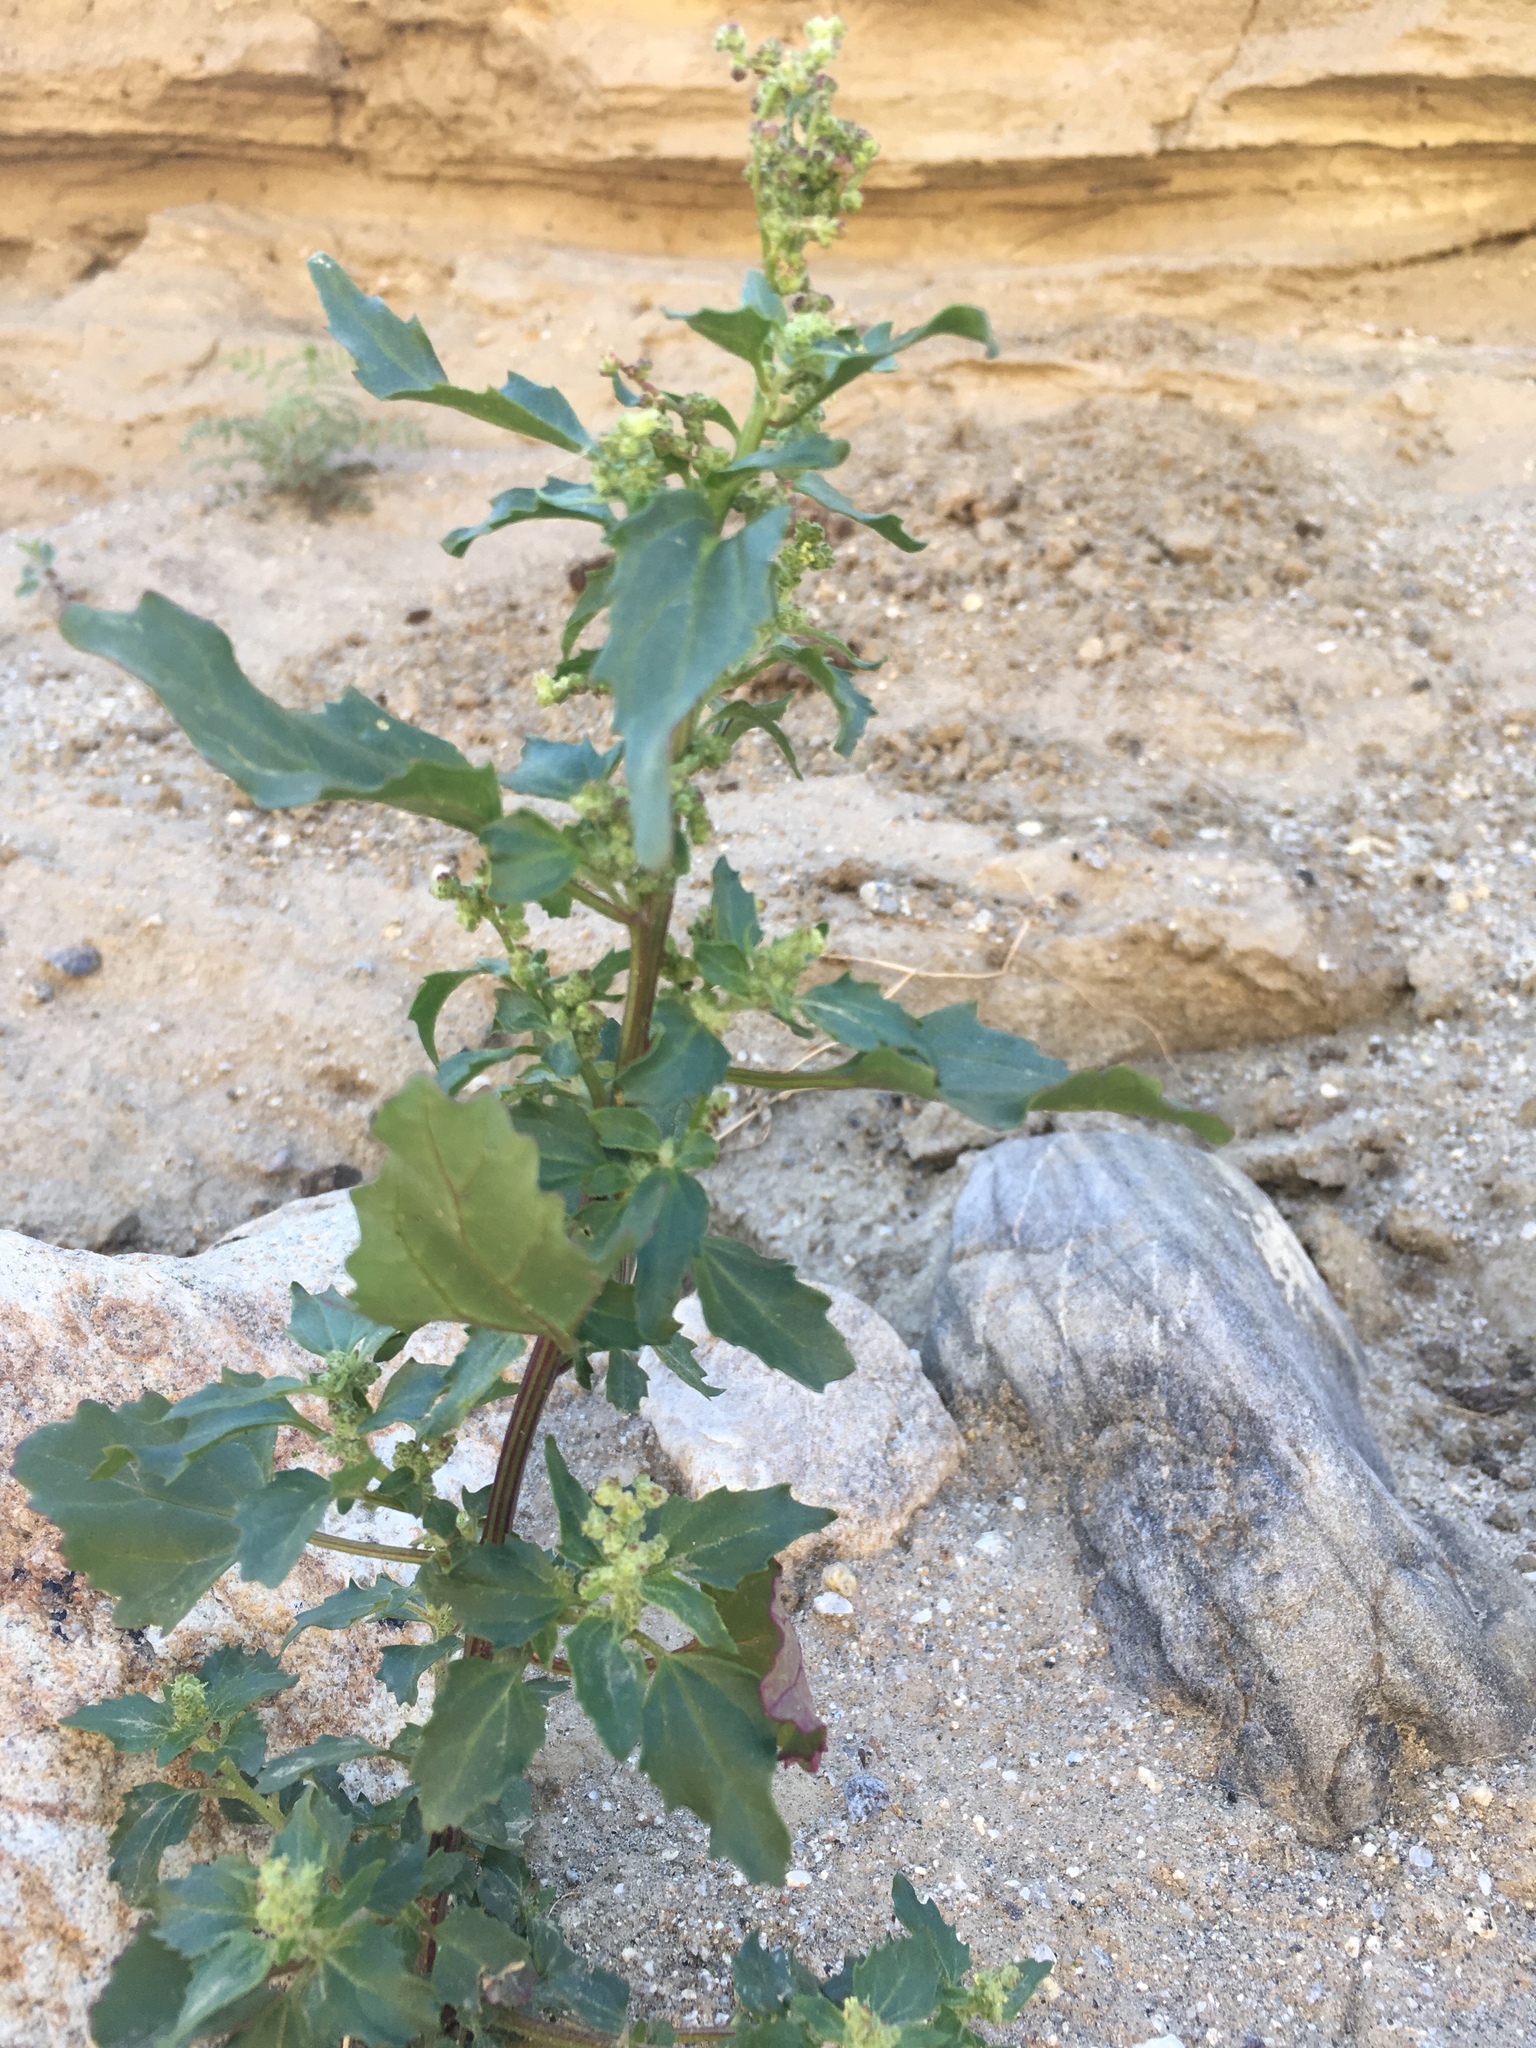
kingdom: Plantae
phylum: Tracheophyta
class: Magnoliopsida
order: Caryophyllales
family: Amaranthaceae
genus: Chenopodiastrum
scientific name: Chenopodiastrum murale
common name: Sowbane
